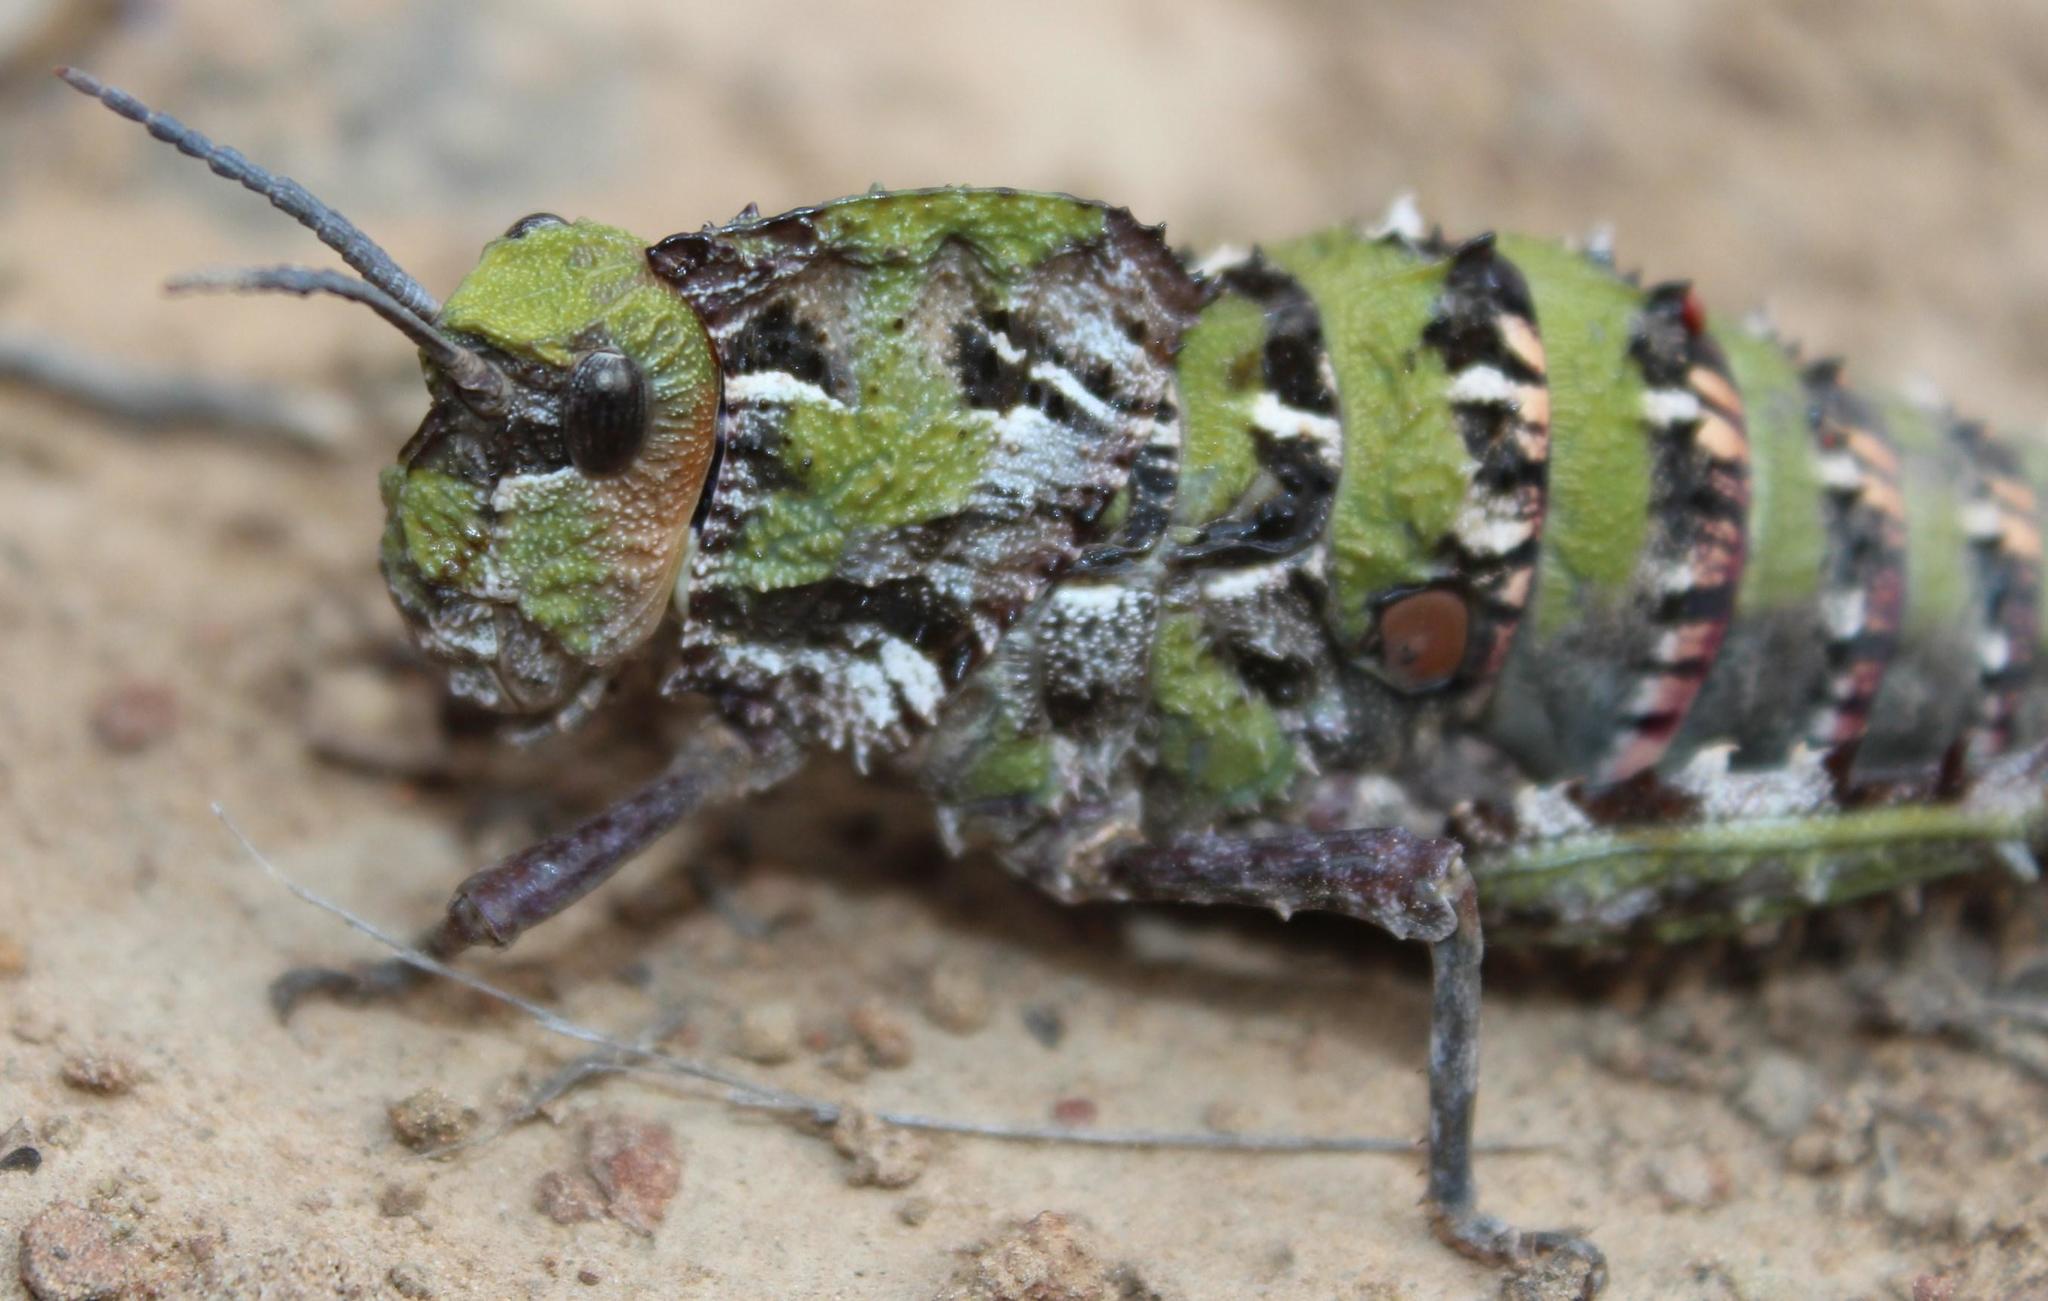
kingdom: Animalia
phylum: Arthropoda
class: Insecta
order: Orthoptera
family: Pamphagidae
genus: Porthetis
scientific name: Porthetis carinata
